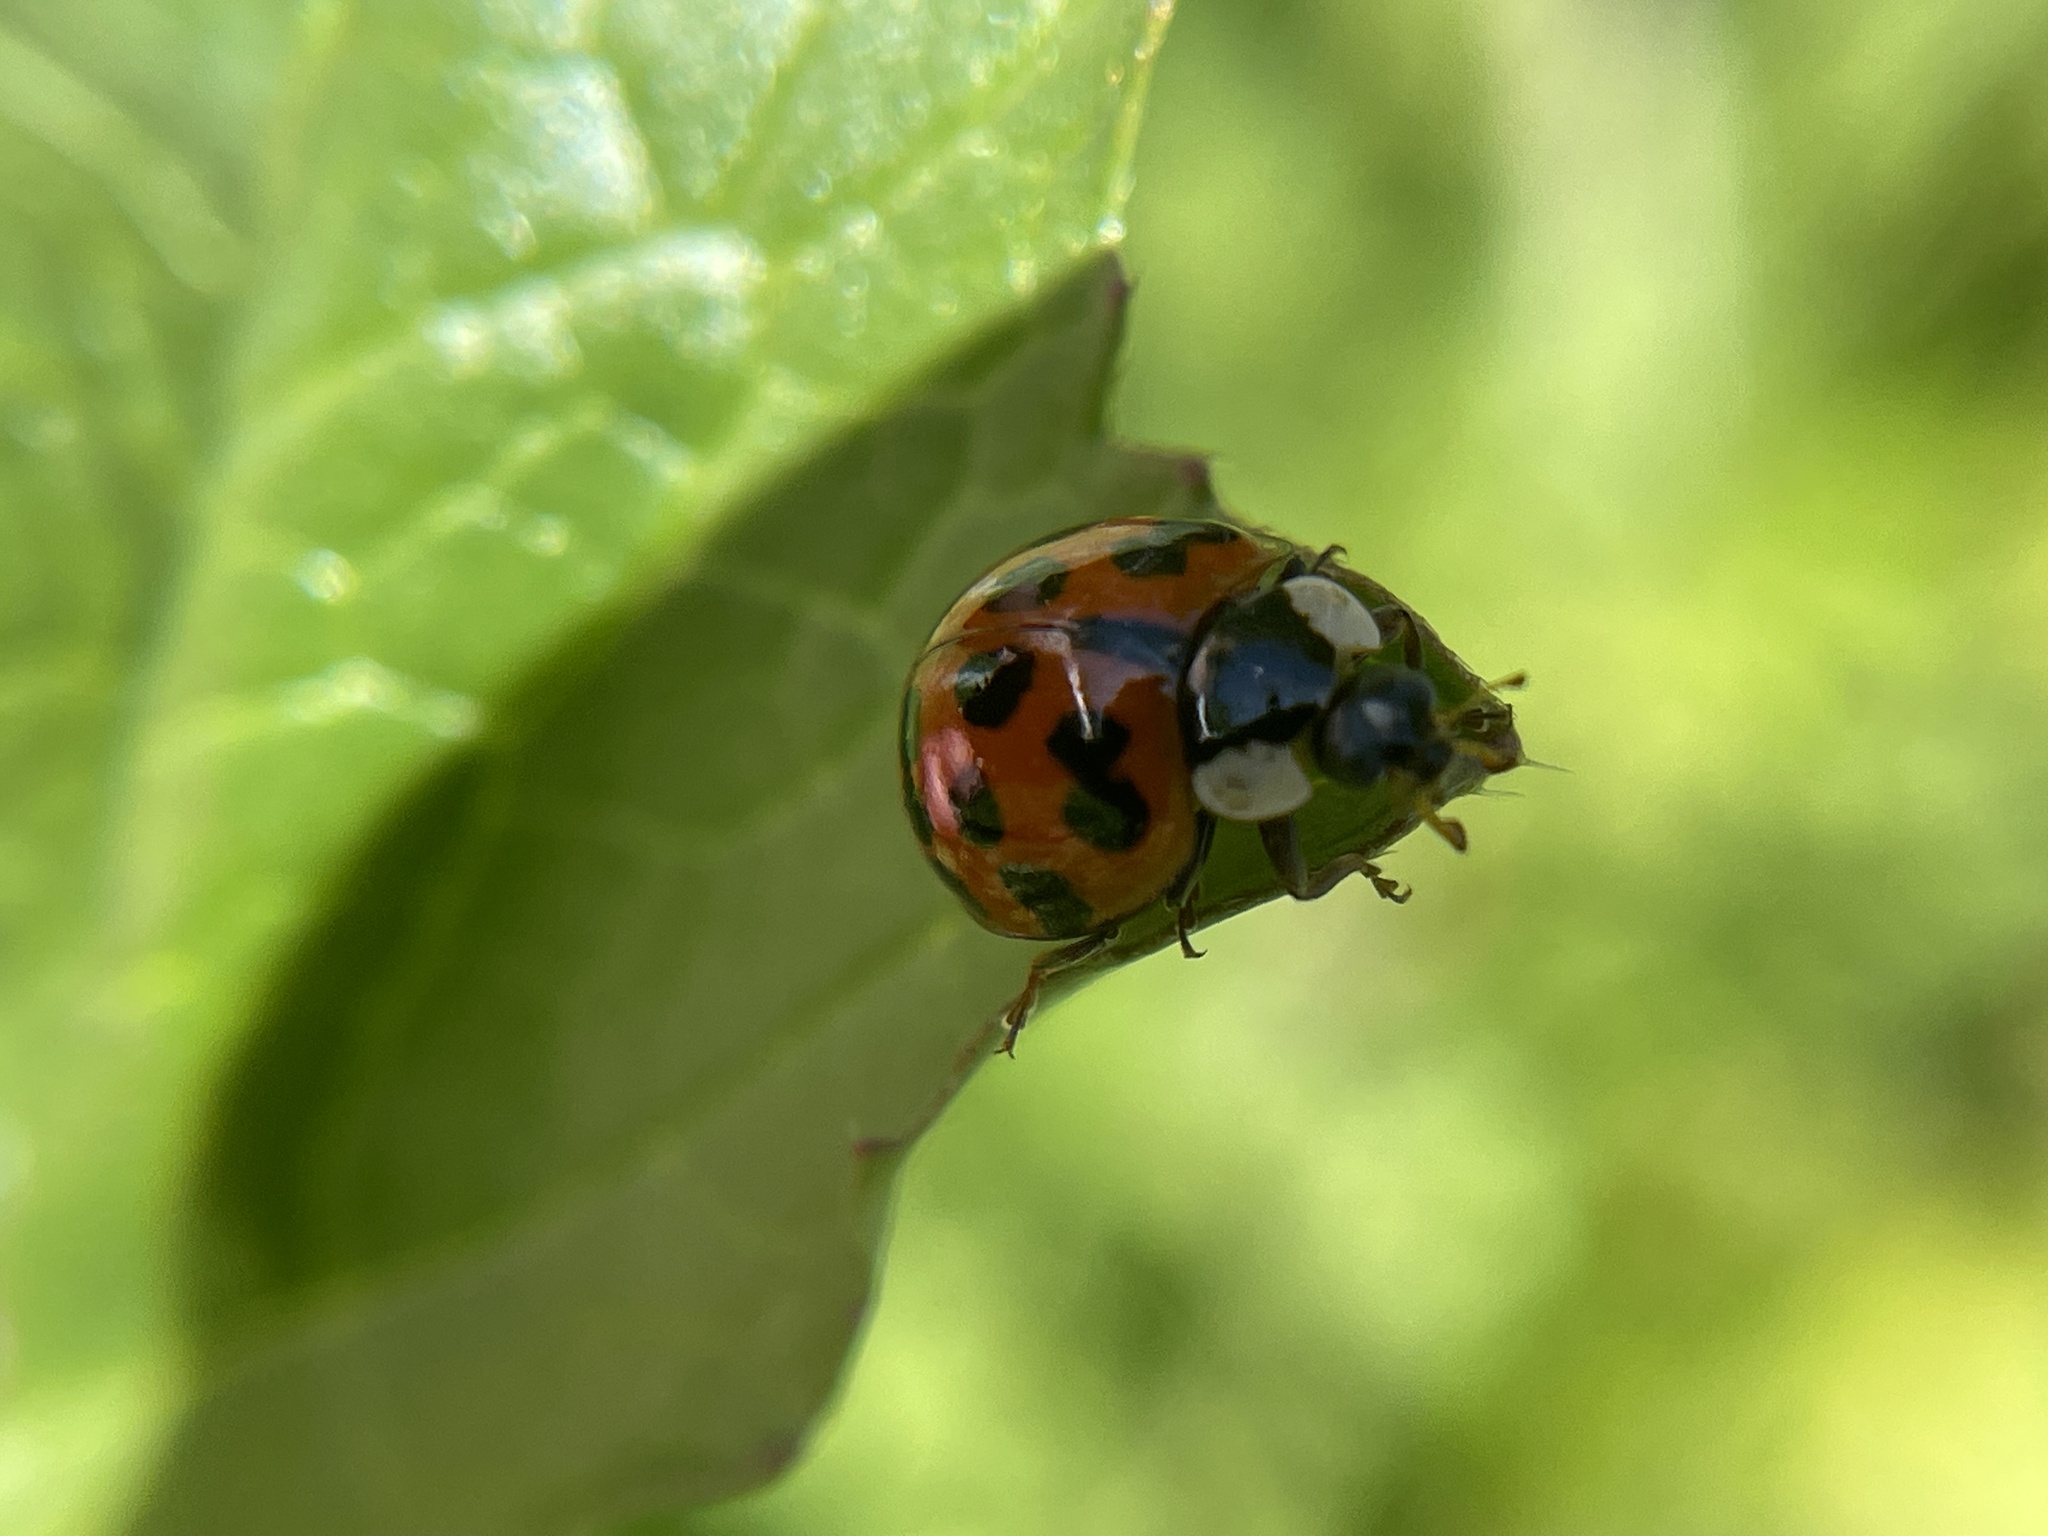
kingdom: Animalia
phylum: Arthropoda
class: Insecta
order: Coleoptera
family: Coccinellidae
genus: Harmonia
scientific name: Harmonia axyridis
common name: Harlequin ladybird
